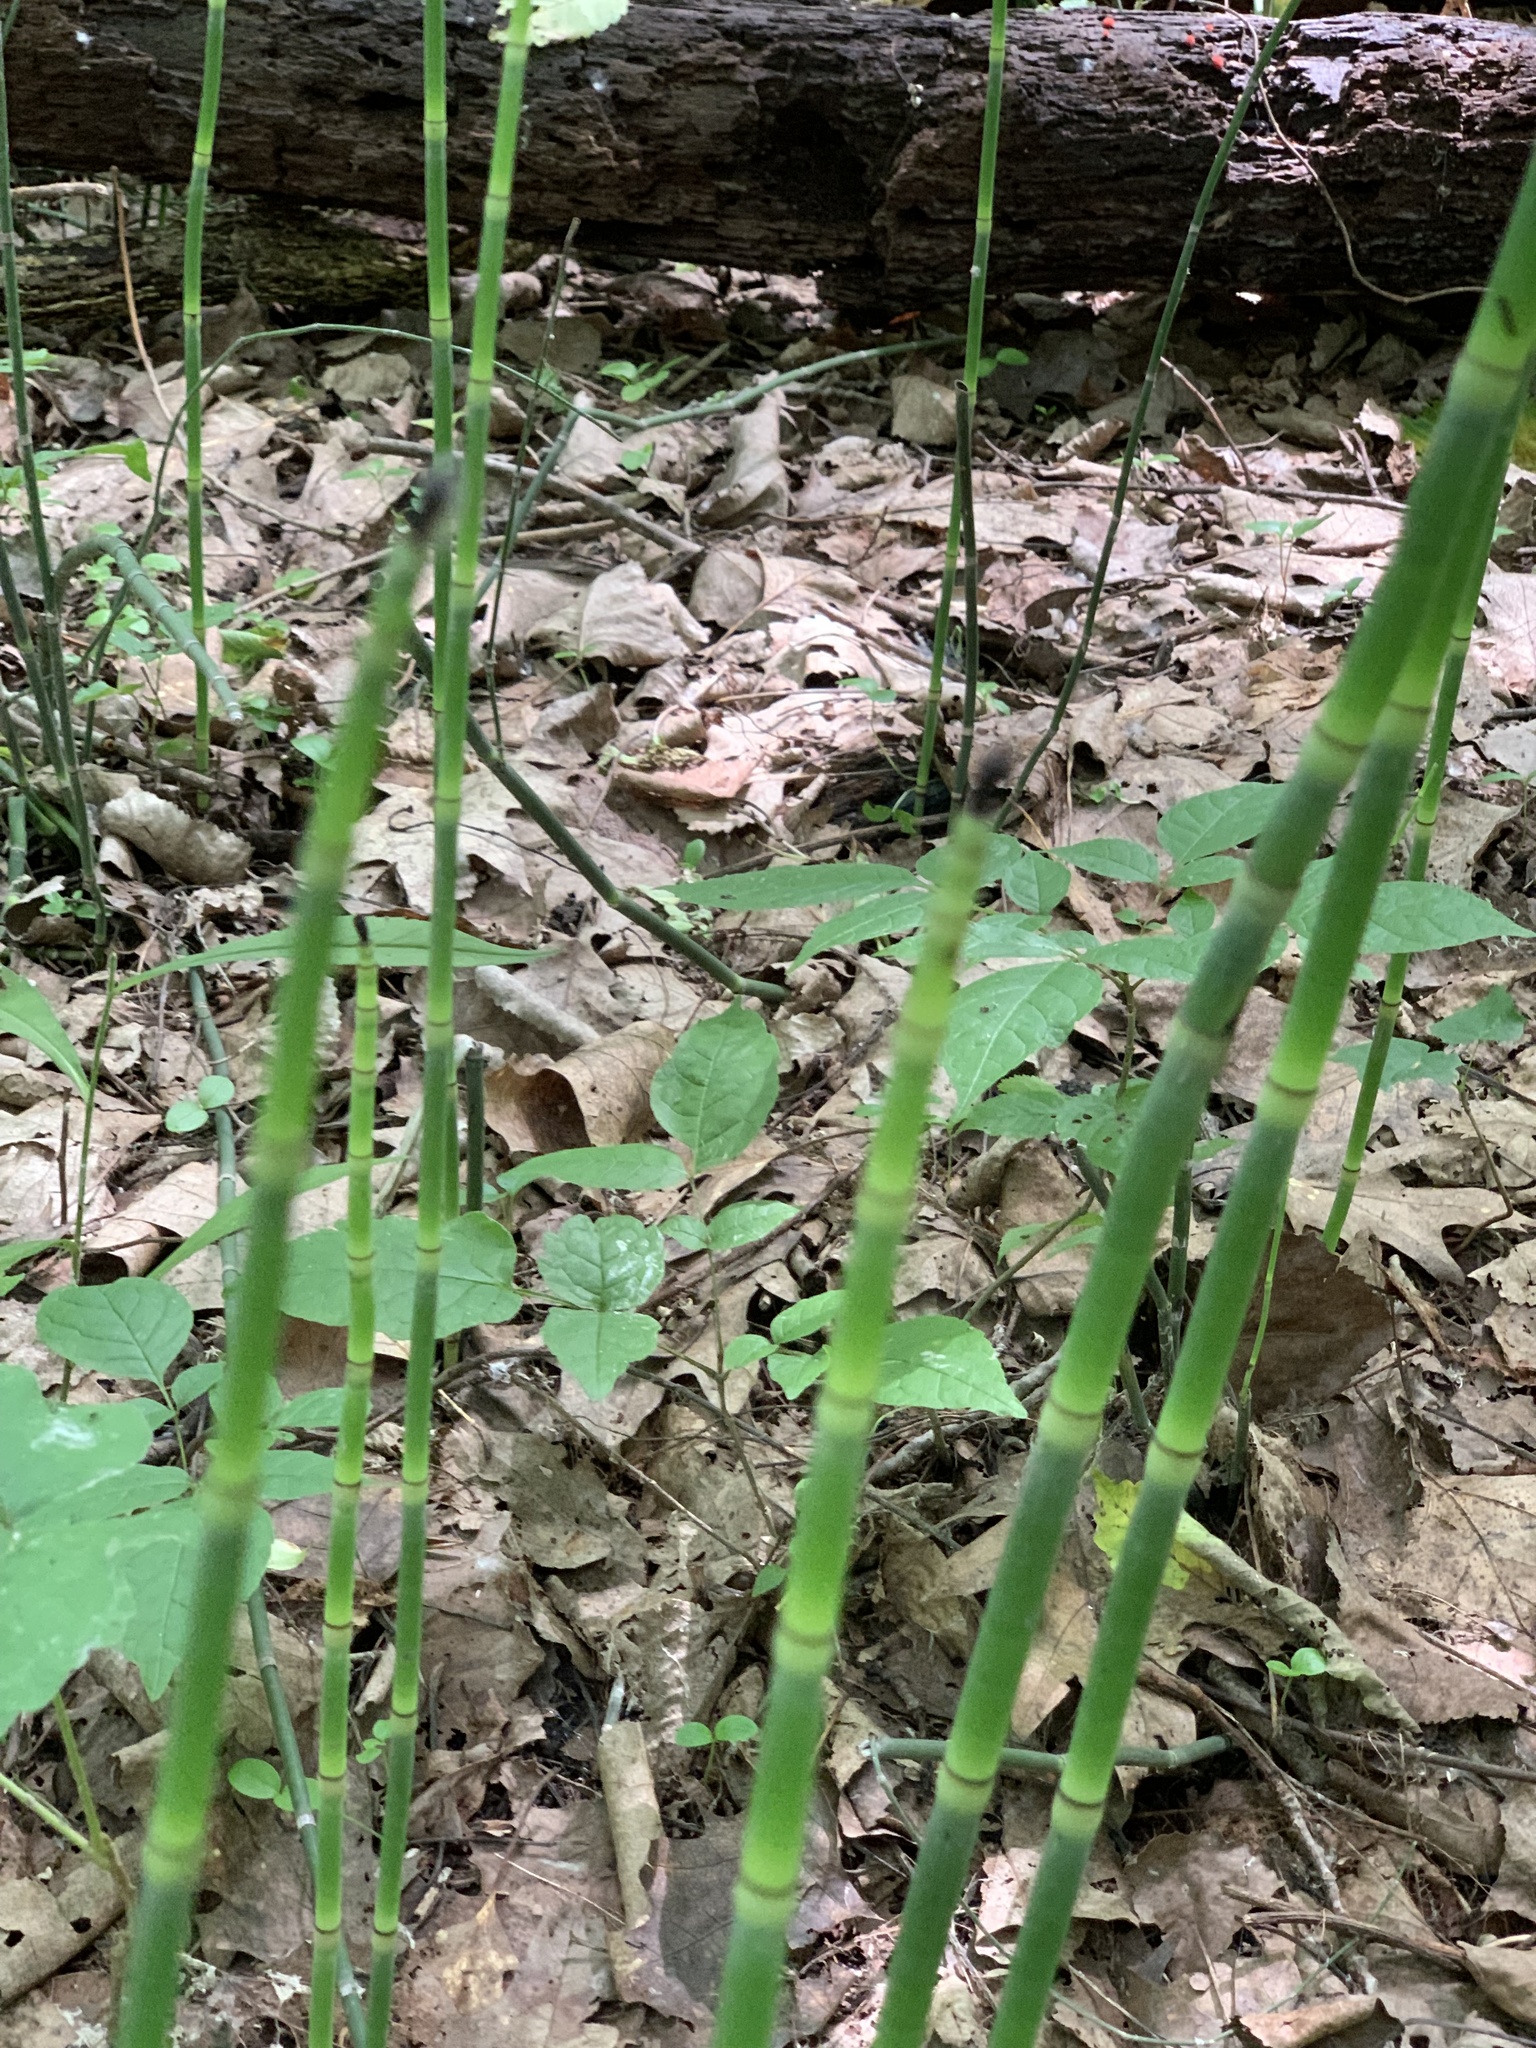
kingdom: Plantae
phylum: Tracheophyta
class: Polypodiopsida
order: Equisetales
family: Equisetaceae
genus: Equisetum
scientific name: Equisetum hyemale
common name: Rough horsetail
